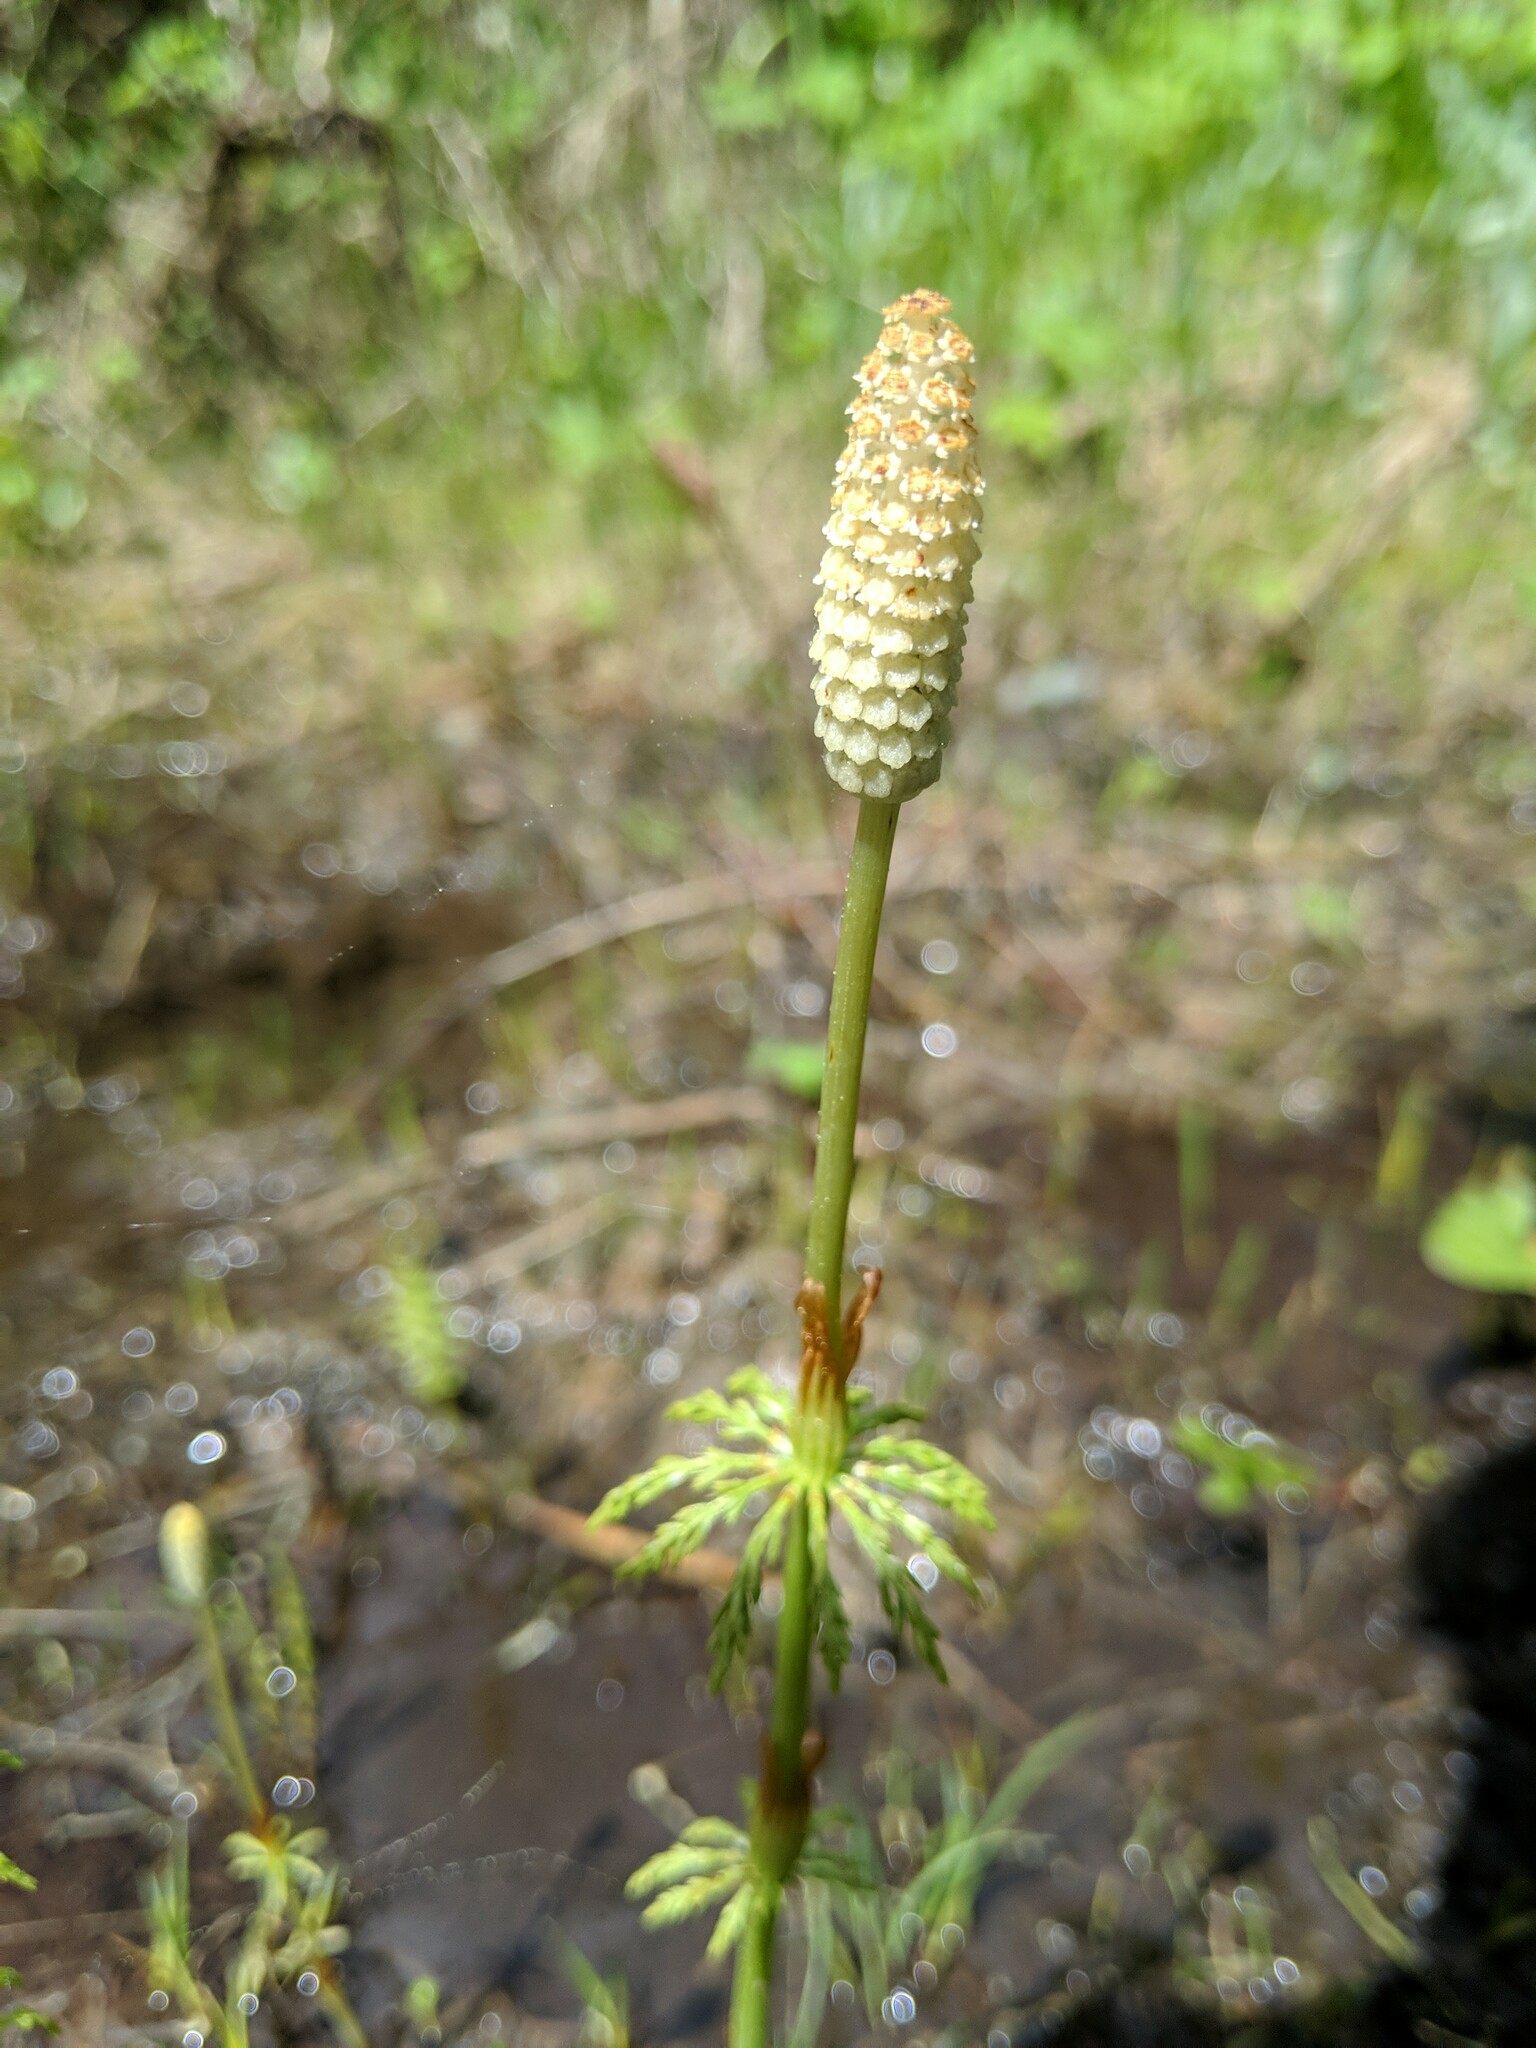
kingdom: Plantae
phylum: Tracheophyta
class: Polypodiopsida
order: Equisetales
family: Equisetaceae
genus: Equisetum
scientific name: Equisetum sylvaticum
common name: Wood horsetail
